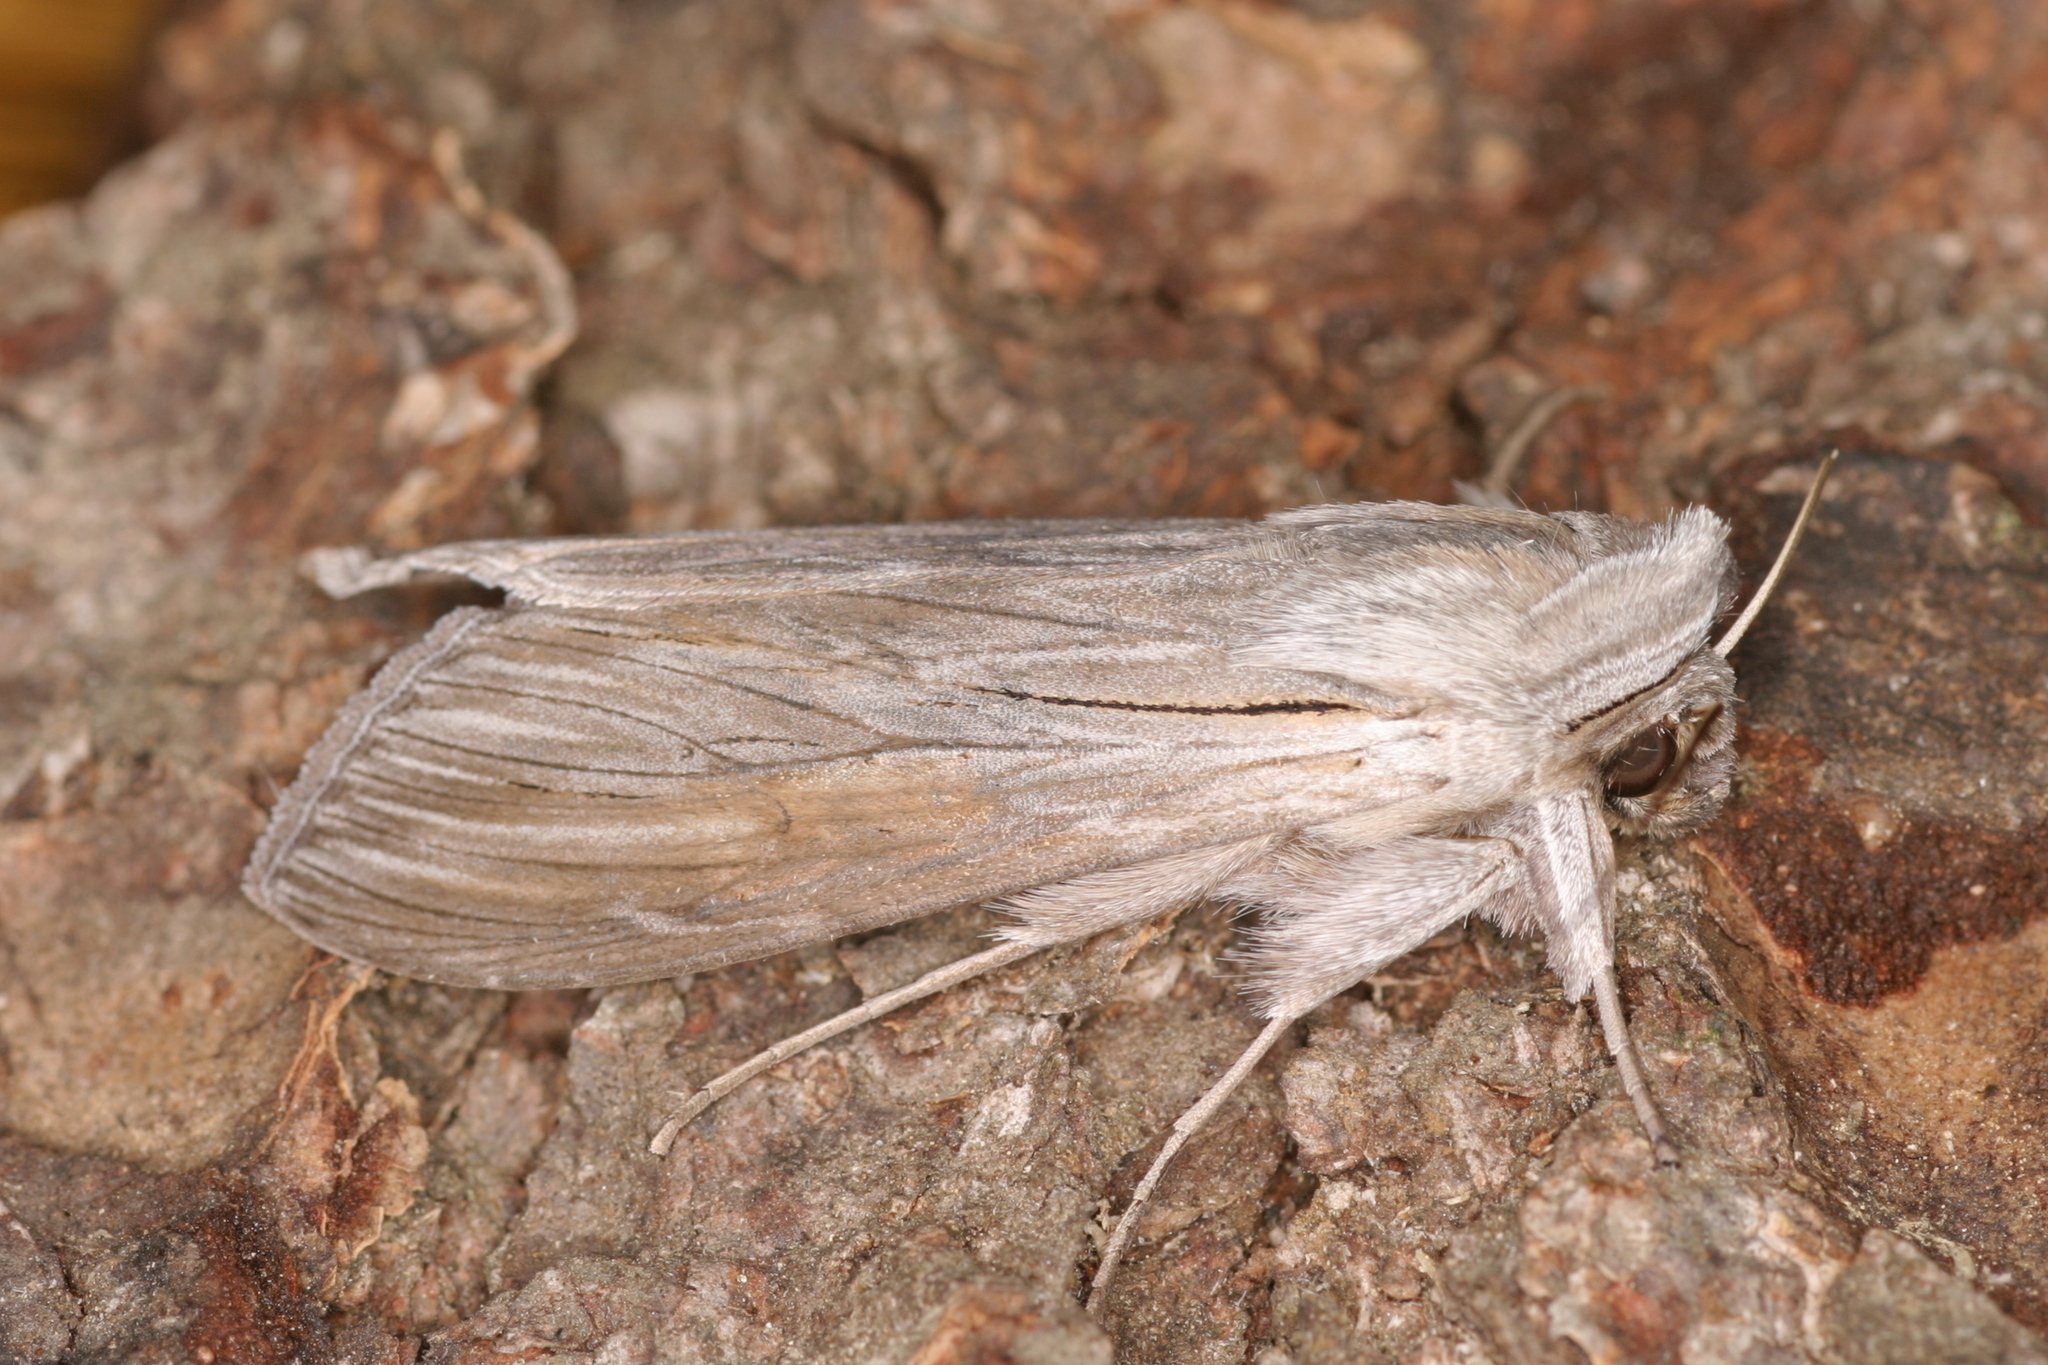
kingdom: Animalia
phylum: Arthropoda
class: Insecta
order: Lepidoptera
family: Noctuidae
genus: Cucullia
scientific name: Cucullia umbratica
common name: Shark
